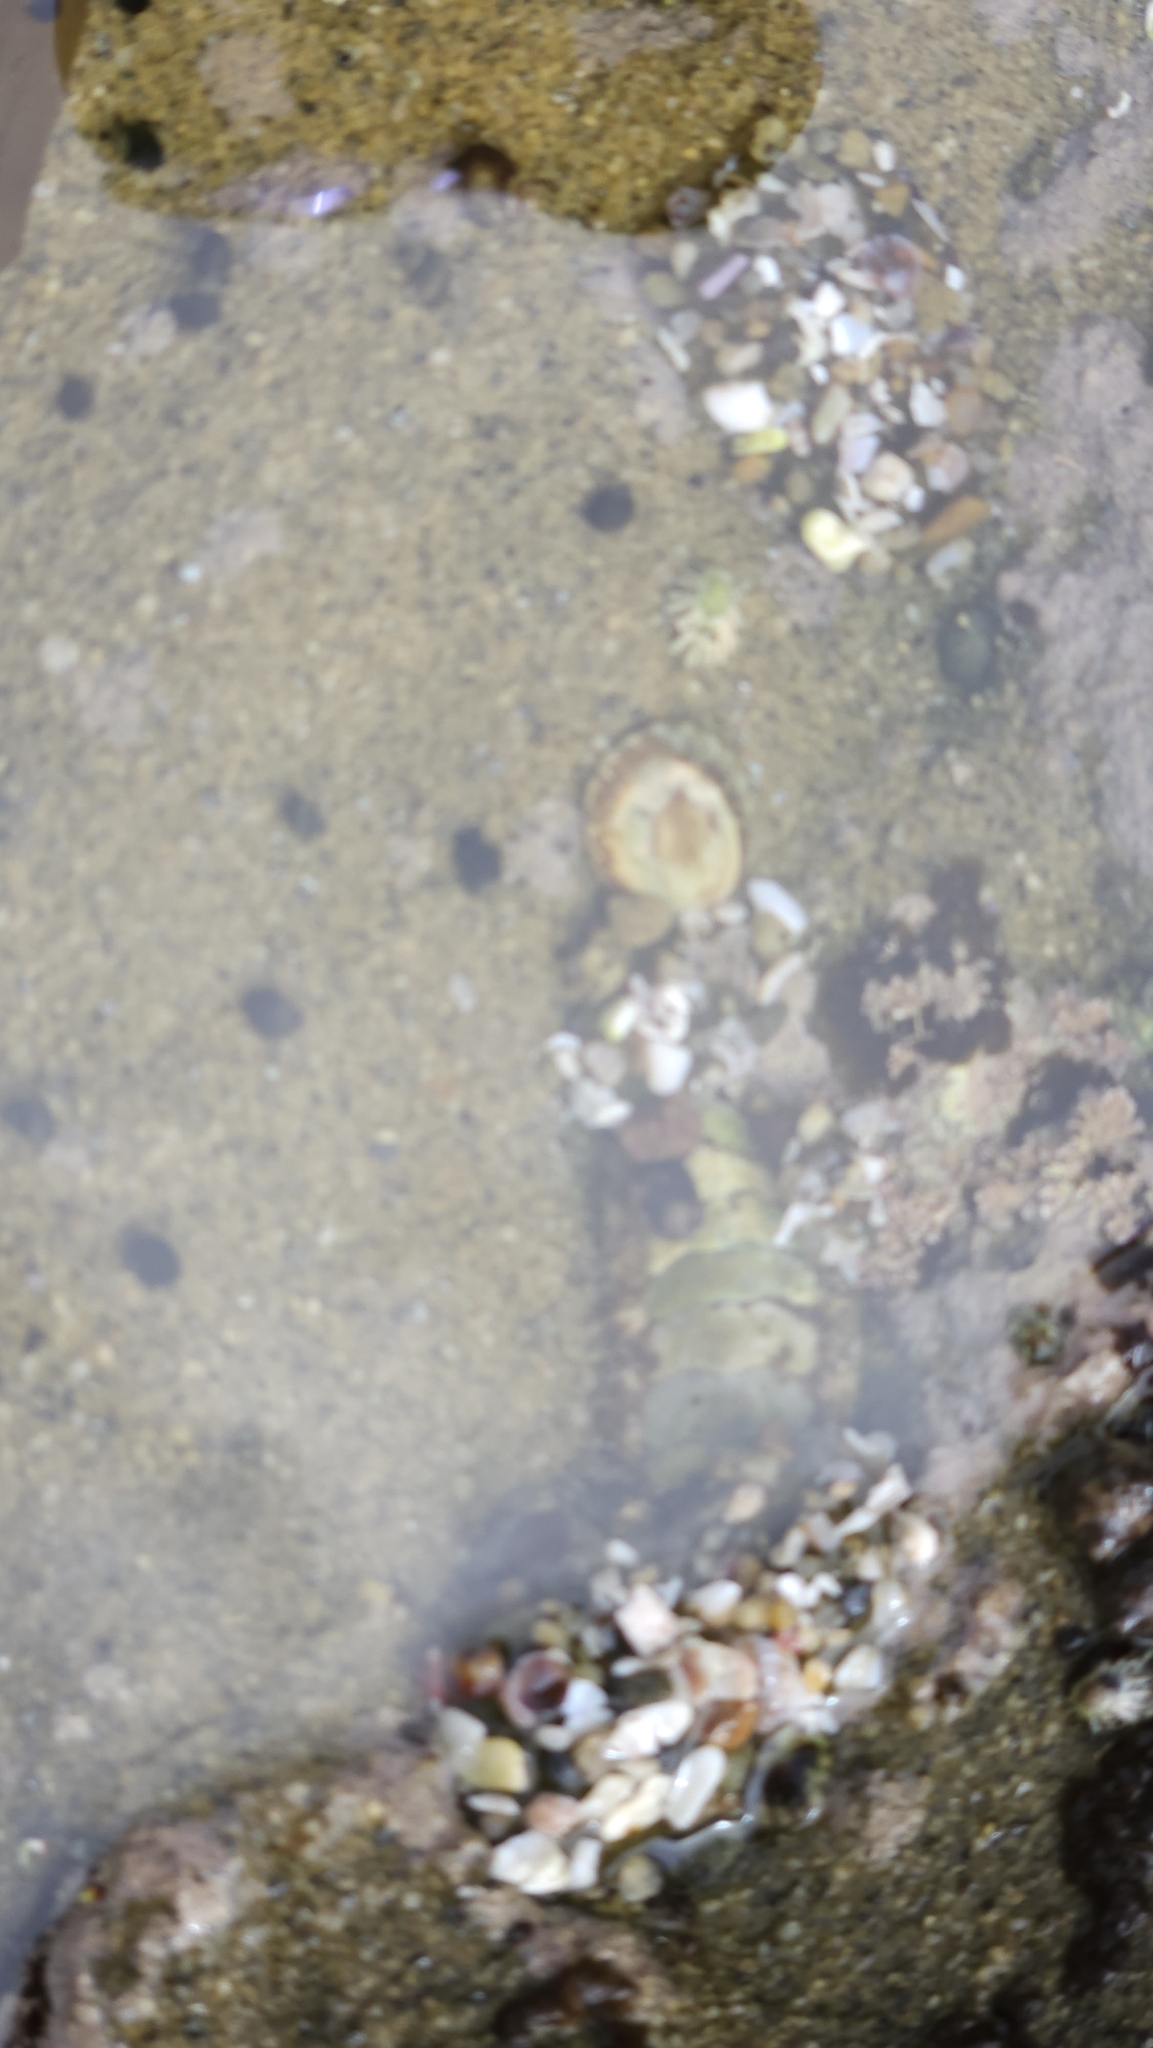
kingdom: Animalia
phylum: Mollusca
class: Polyplacophora
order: Chitonida
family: Tonicellidae
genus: Nuttallina
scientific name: Nuttallina californica
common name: California nuttall chiton
